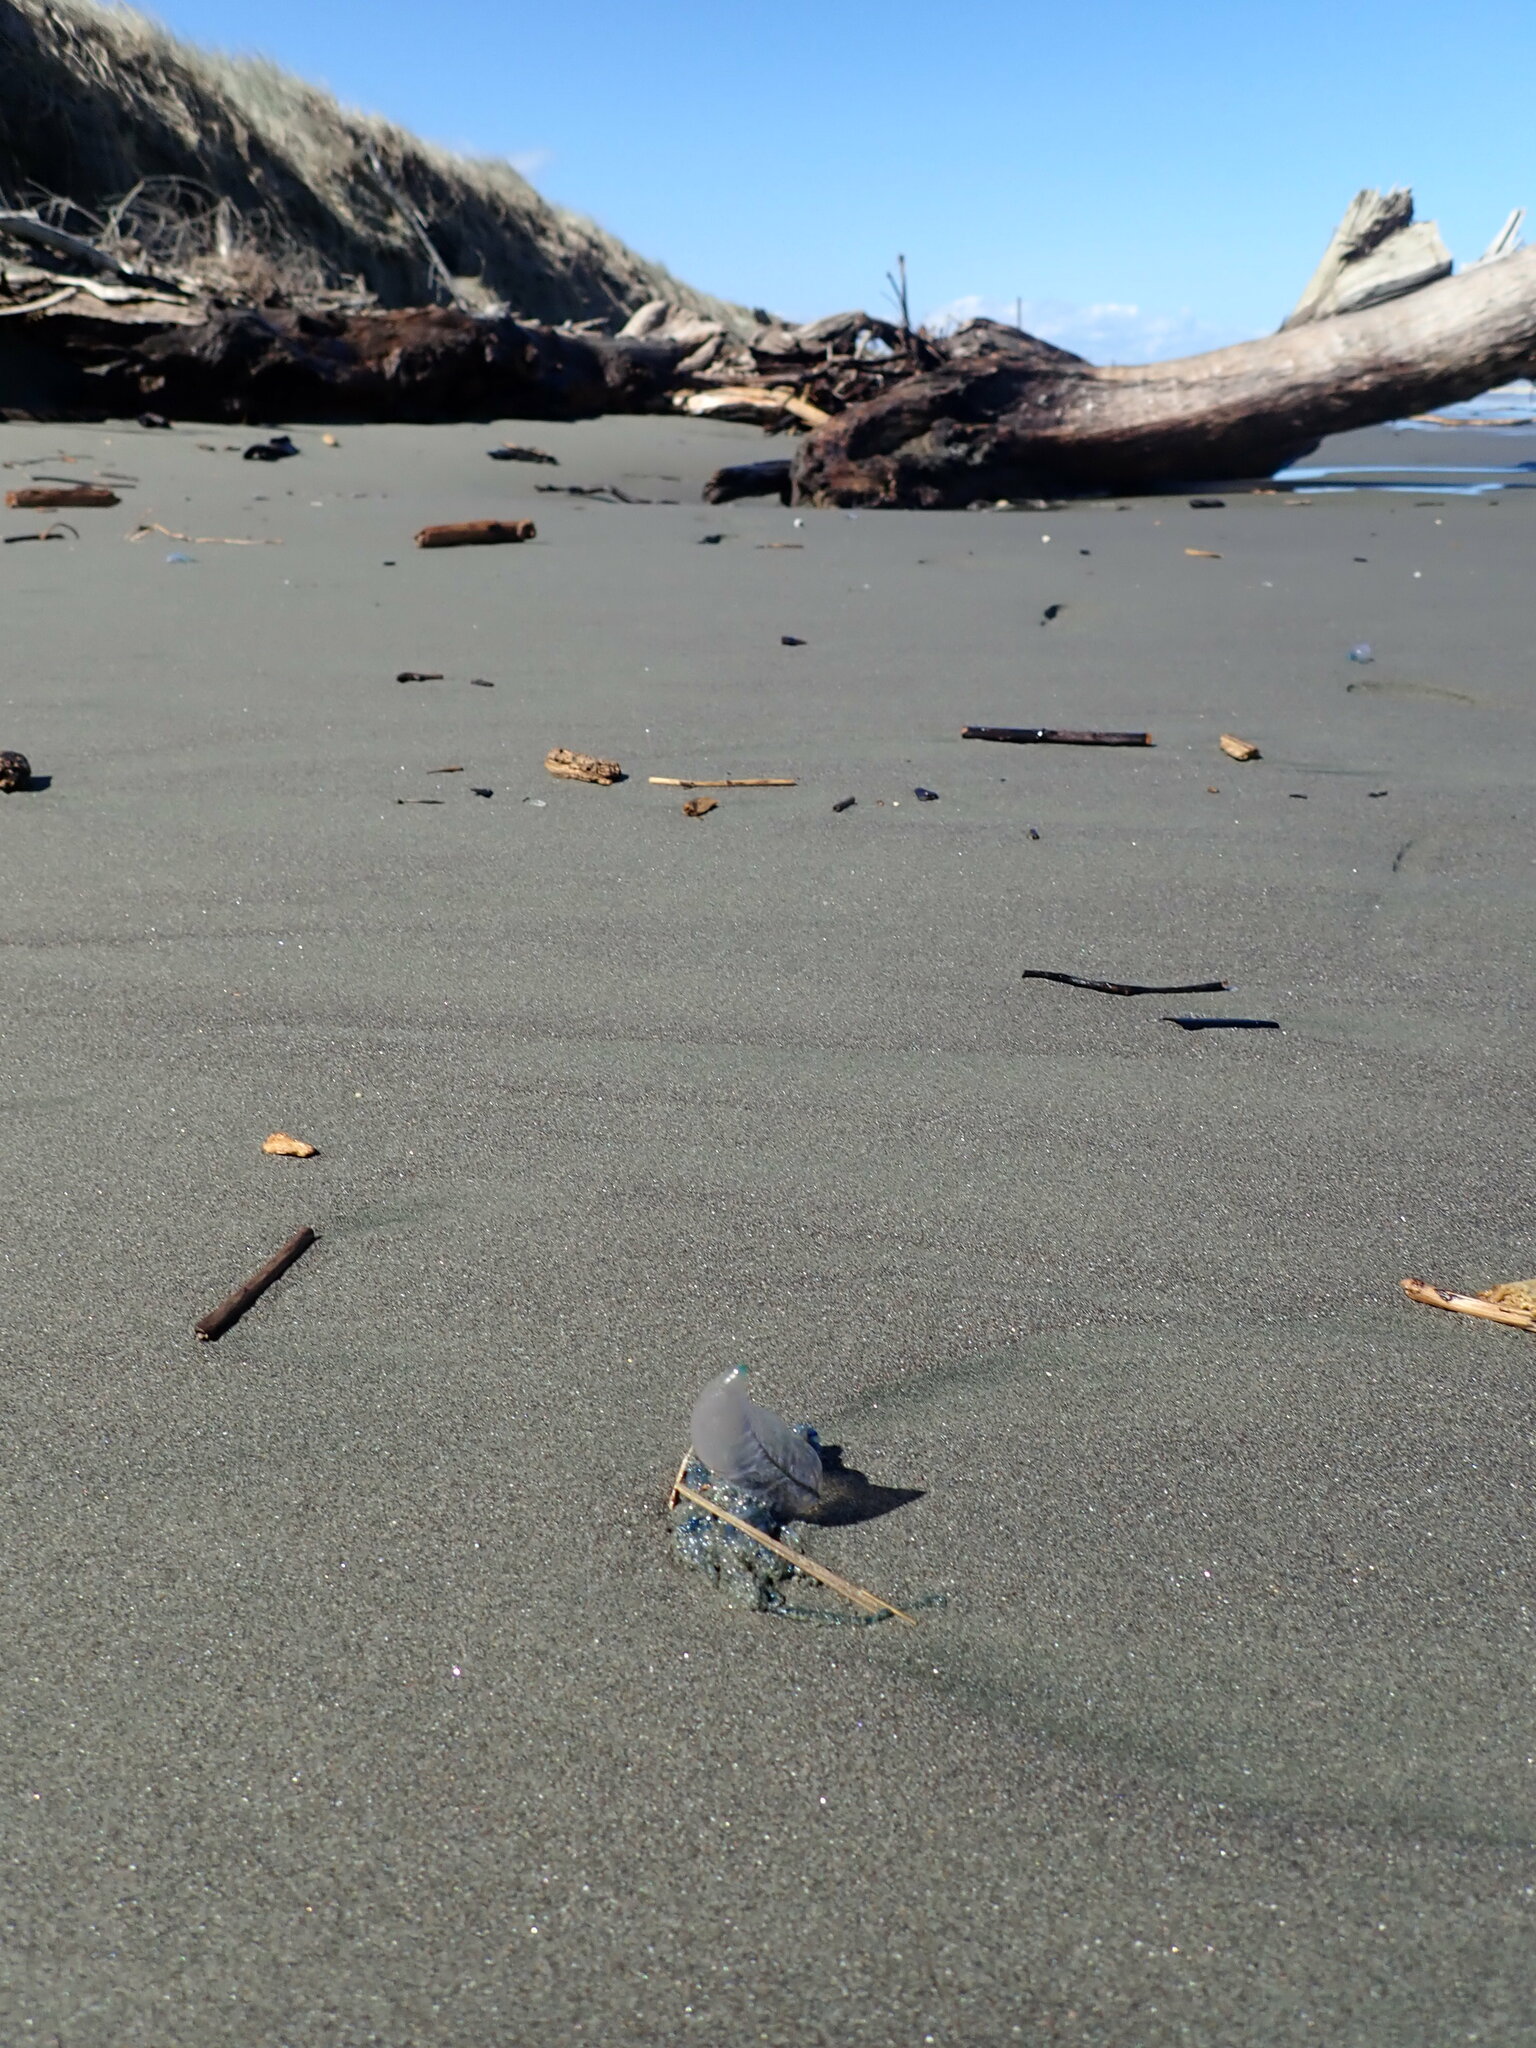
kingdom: Animalia
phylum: Cnidaria
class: Hydrozoa
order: Siphonophorae
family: Physaliidae
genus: Physalia
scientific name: Physalia physalis
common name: Portuguese man-of-war
